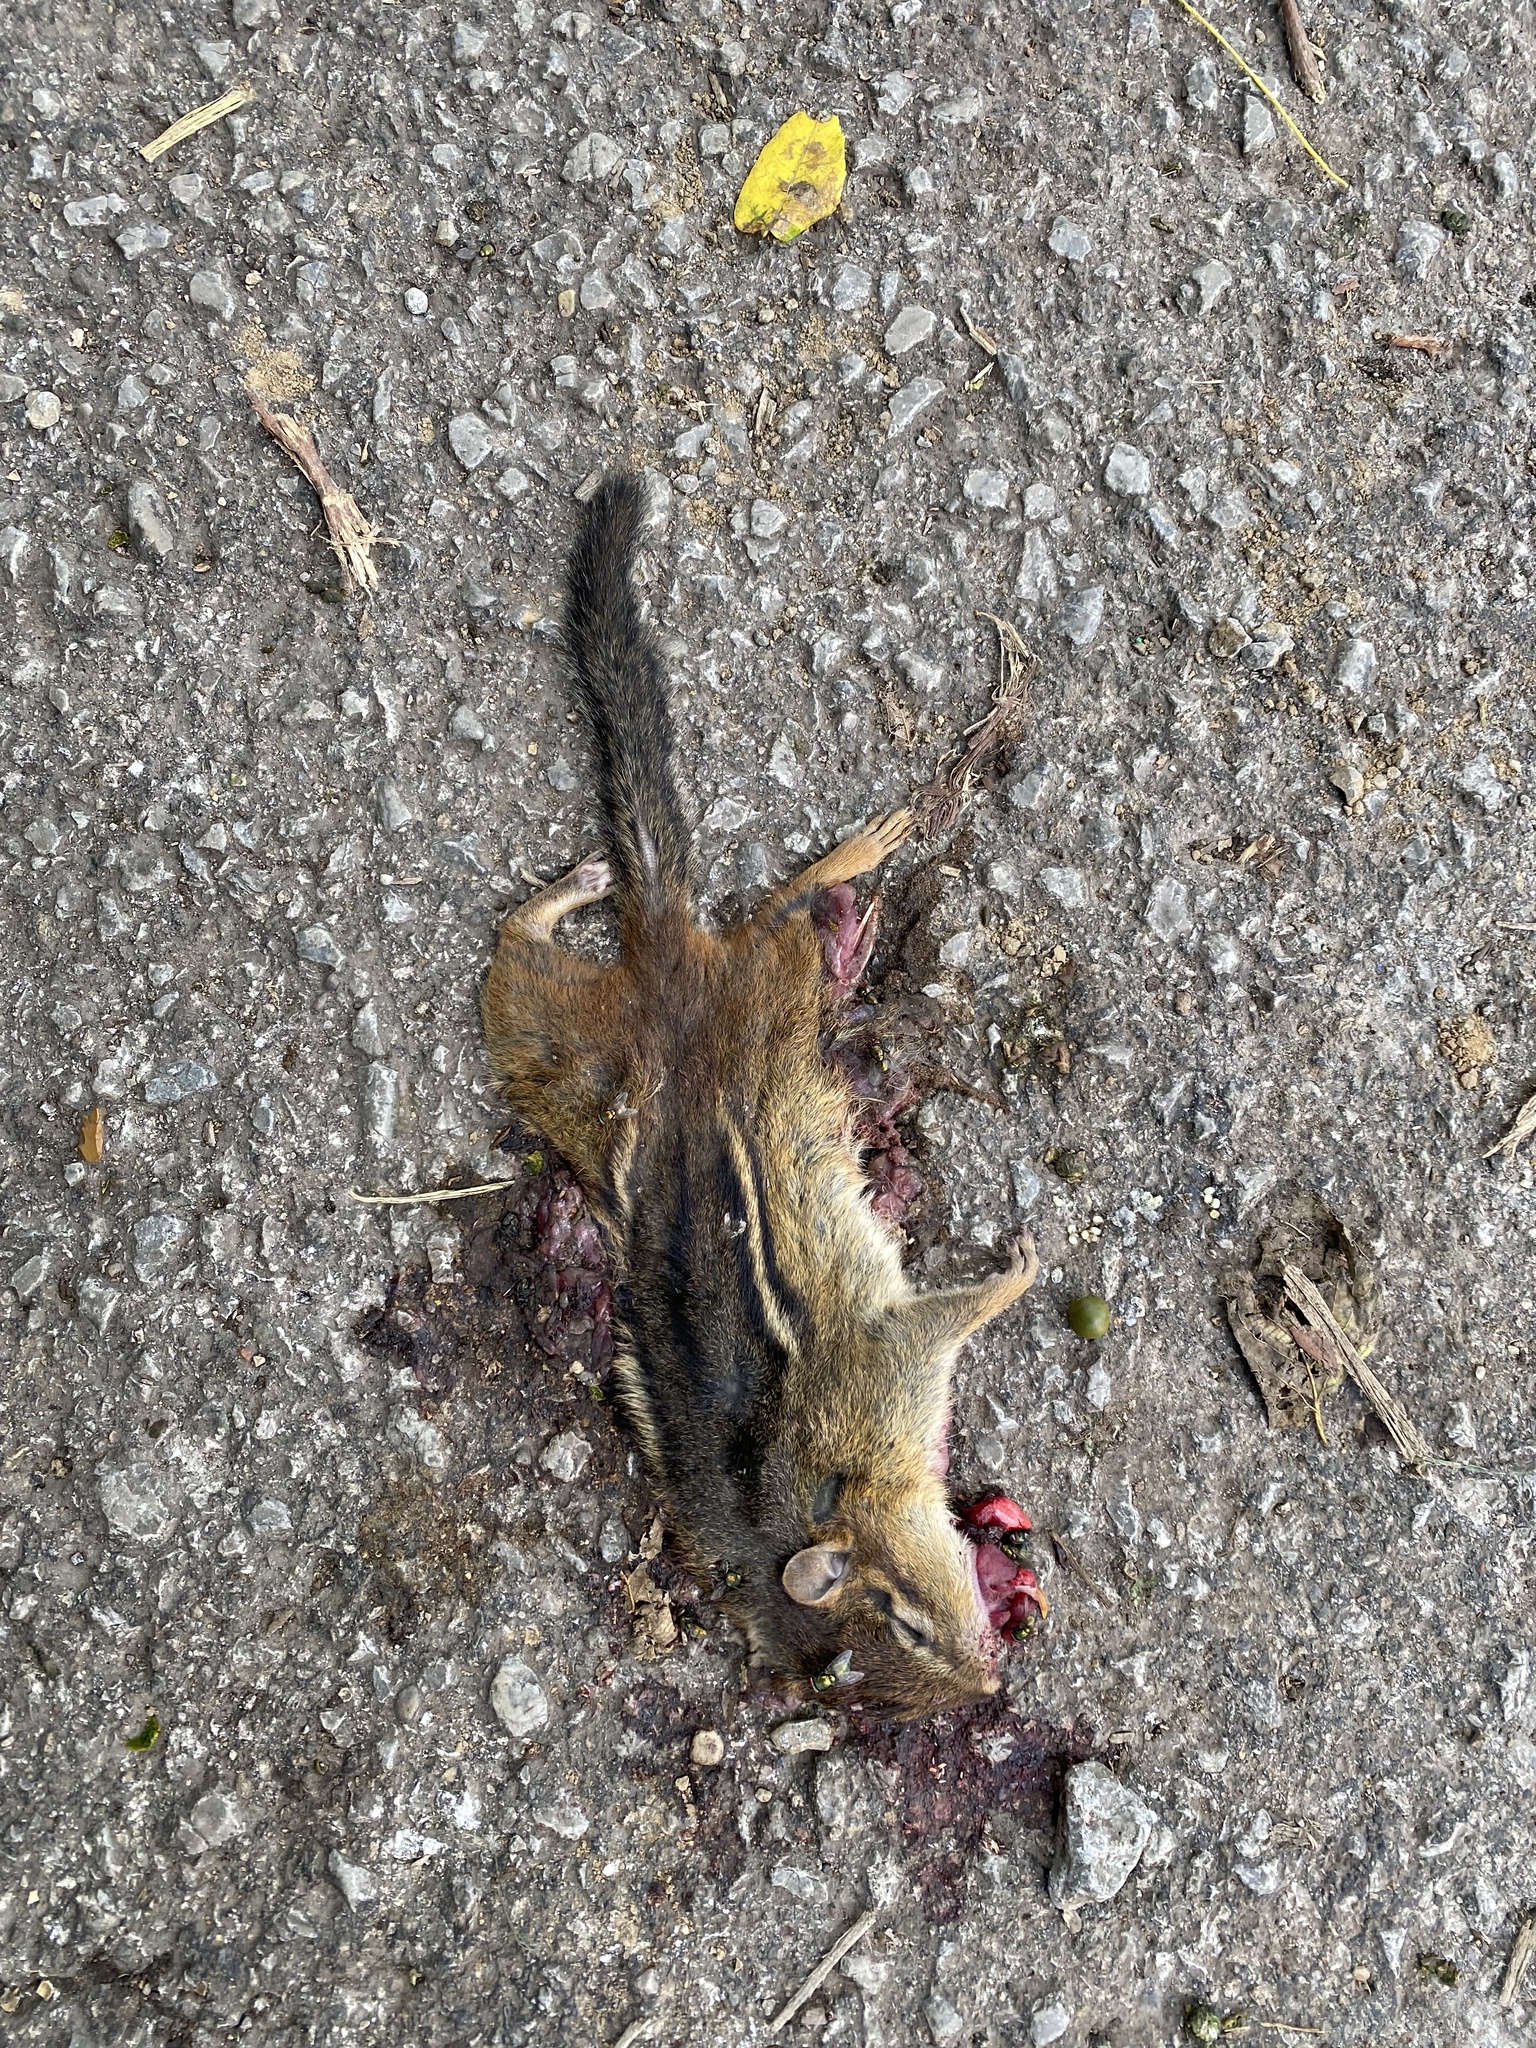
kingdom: Animalia
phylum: Chordata
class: Mammalia
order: Rodentia
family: Sciuridae
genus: Tamias
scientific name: Tamias striatus
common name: Eastern chipmunk
